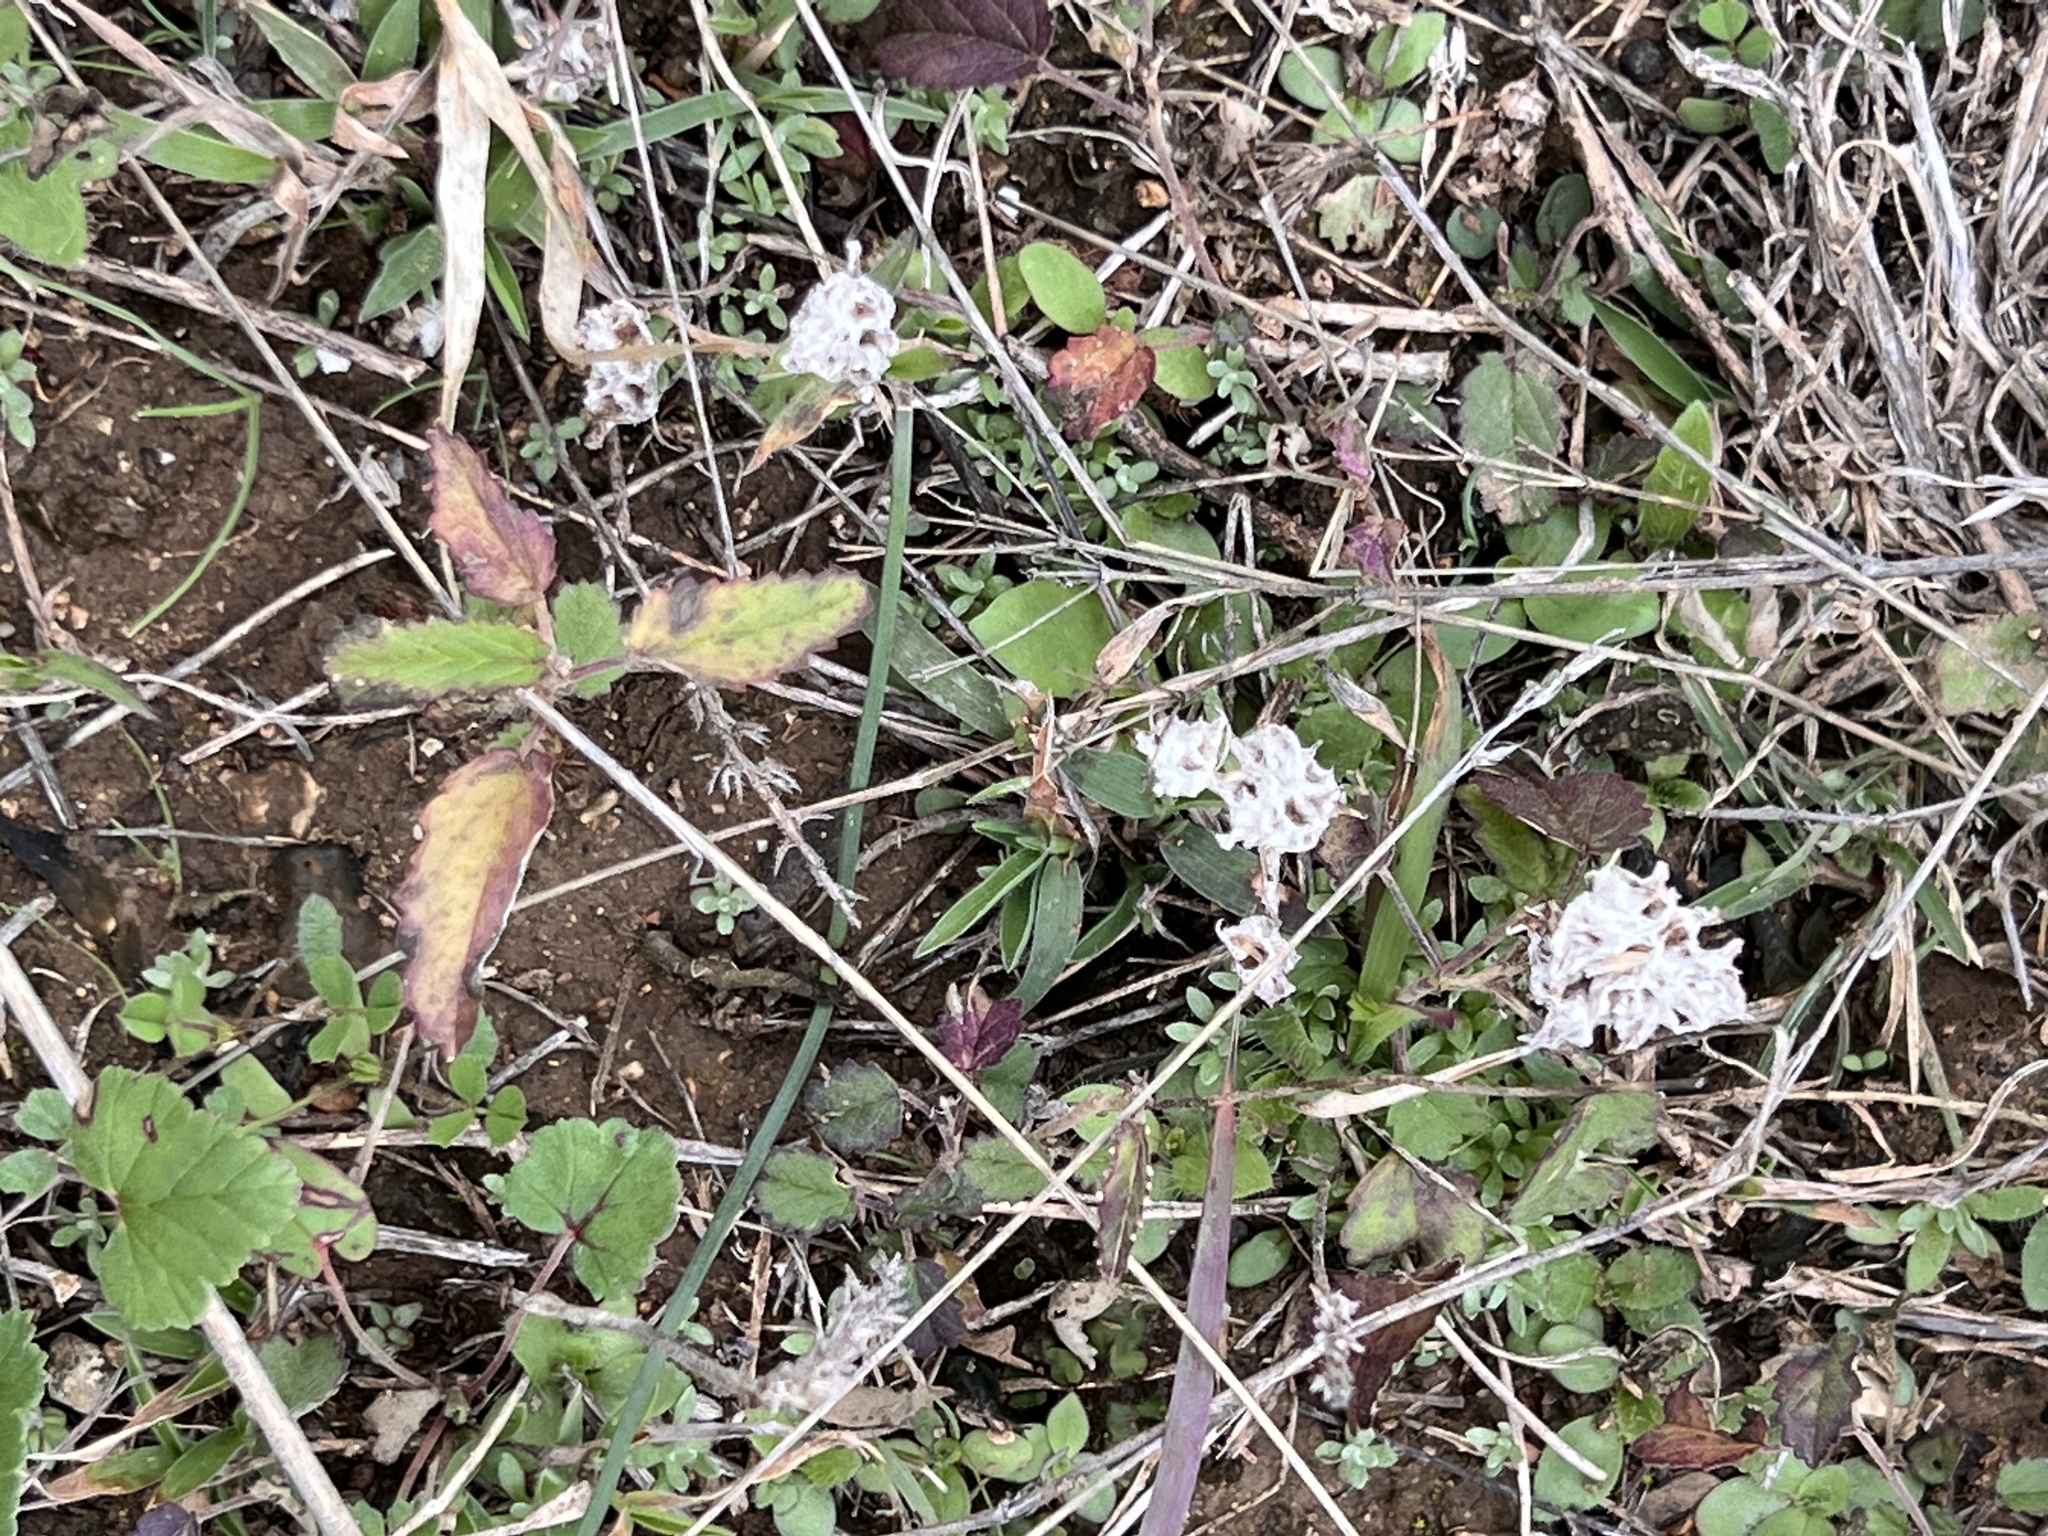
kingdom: Plantae
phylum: Tracheophyta
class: Magnoliopsida
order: Asterales
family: Asteraceae
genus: Diaperia
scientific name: Diaperia prolifera
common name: Big-head rabbit-tobacco
